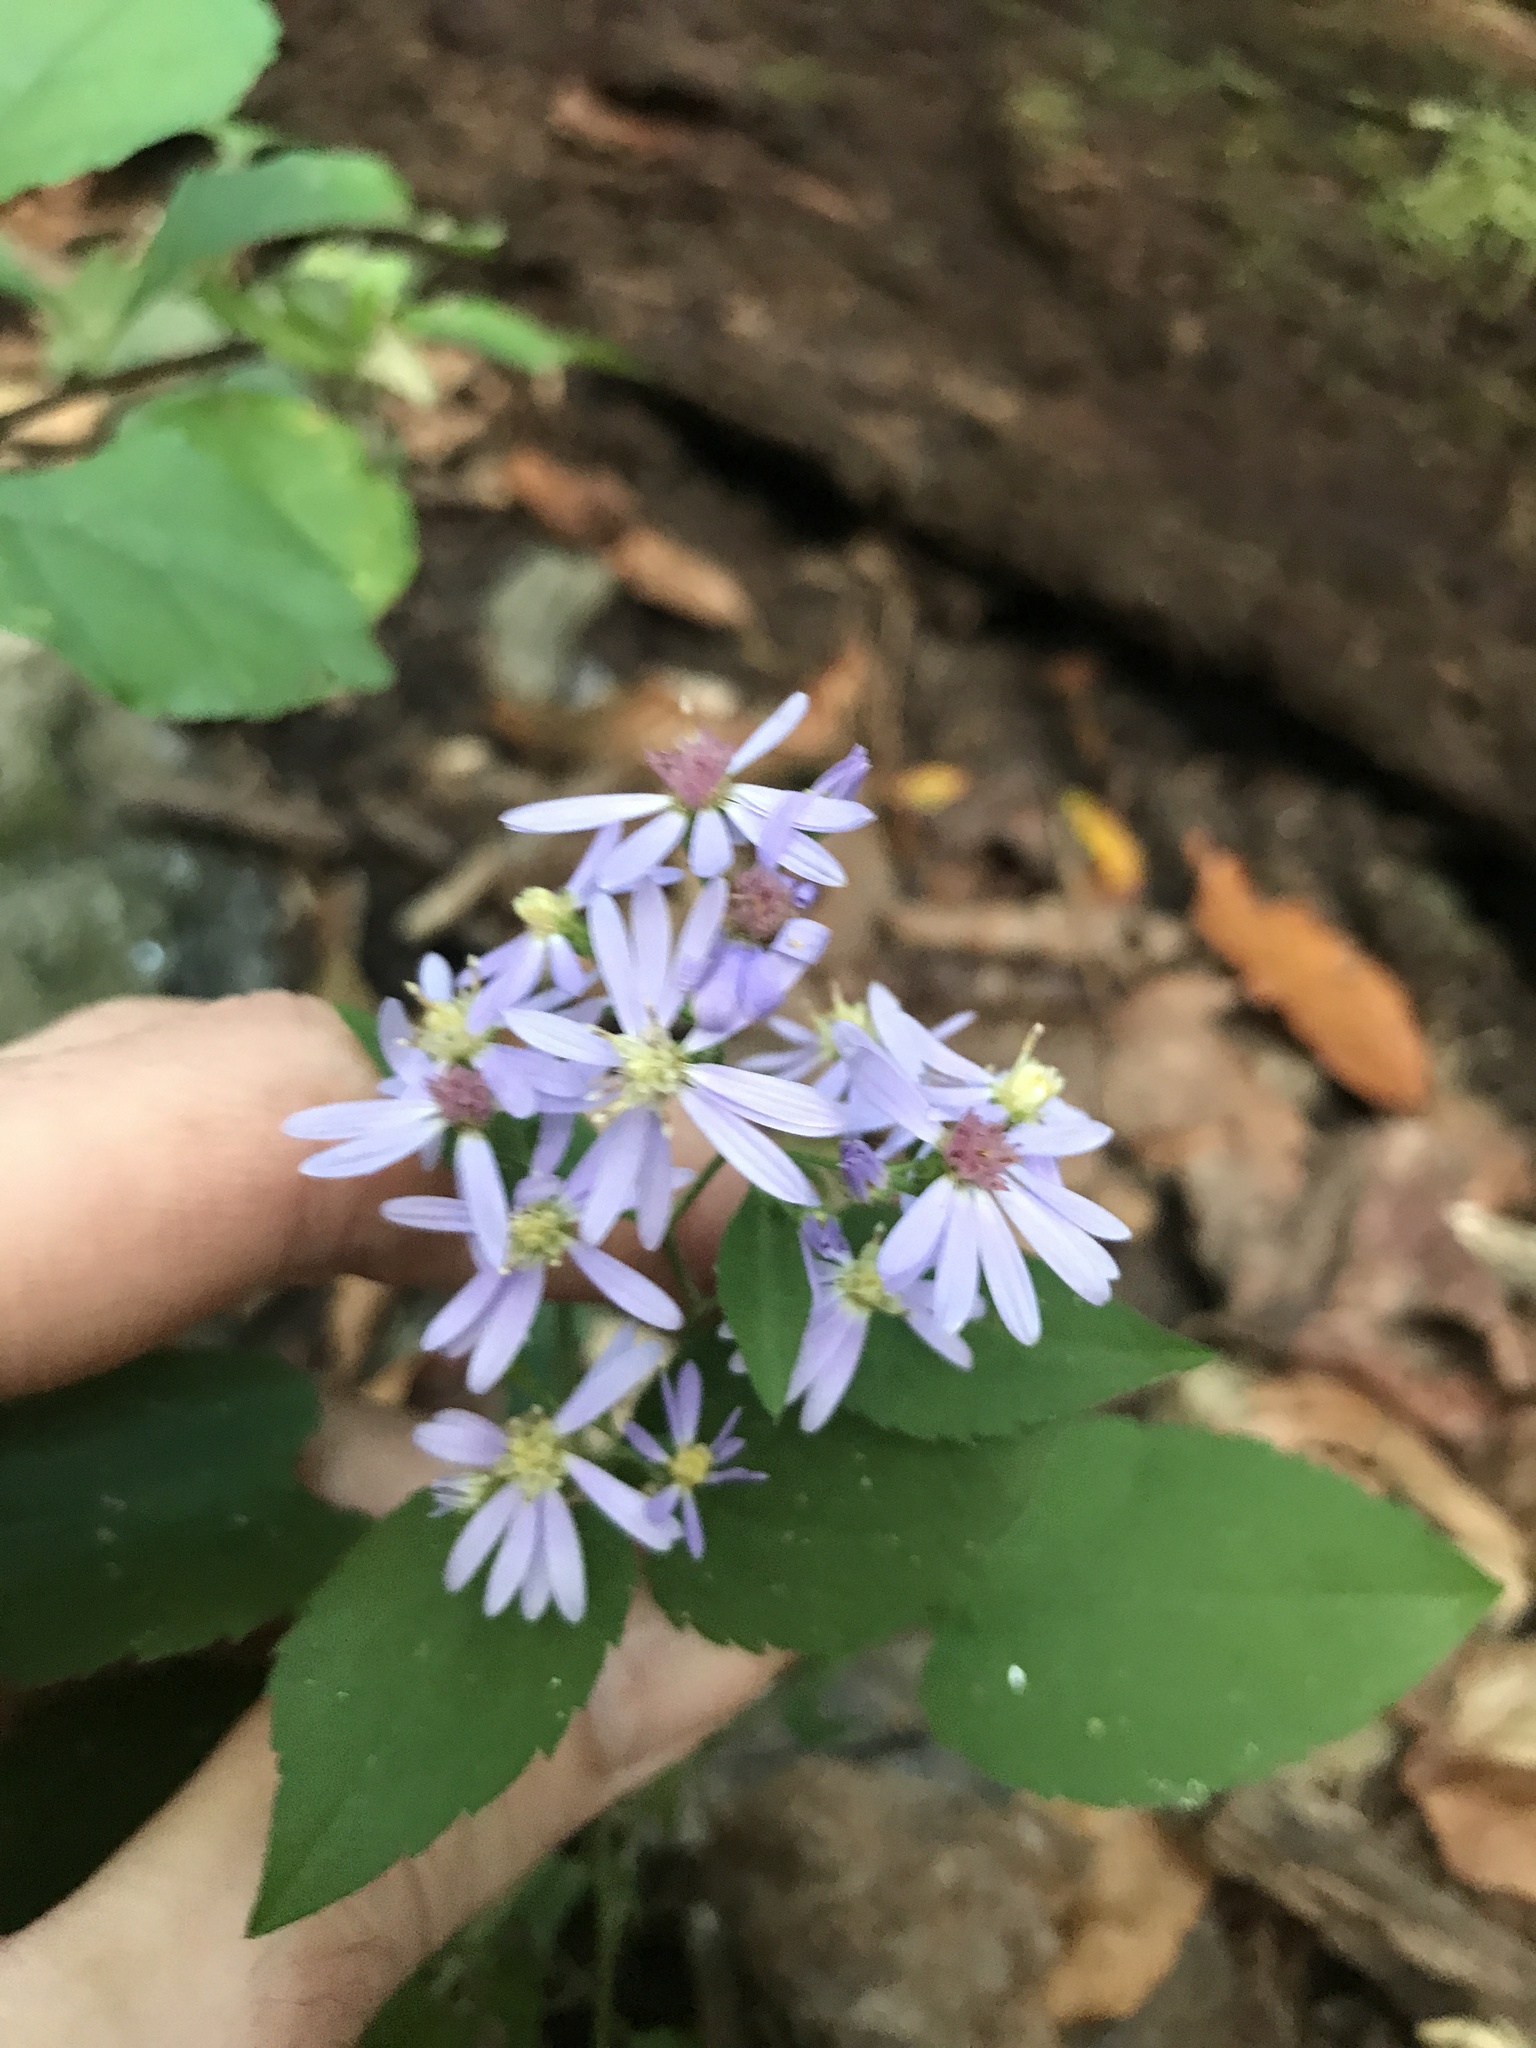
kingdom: Plantae
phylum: Tracheophyta
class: Magnoliopsida
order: Asterales
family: Asteraceae
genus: Symphyotrichum
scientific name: Symphyotrichum cordifolium
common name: Beeweed
